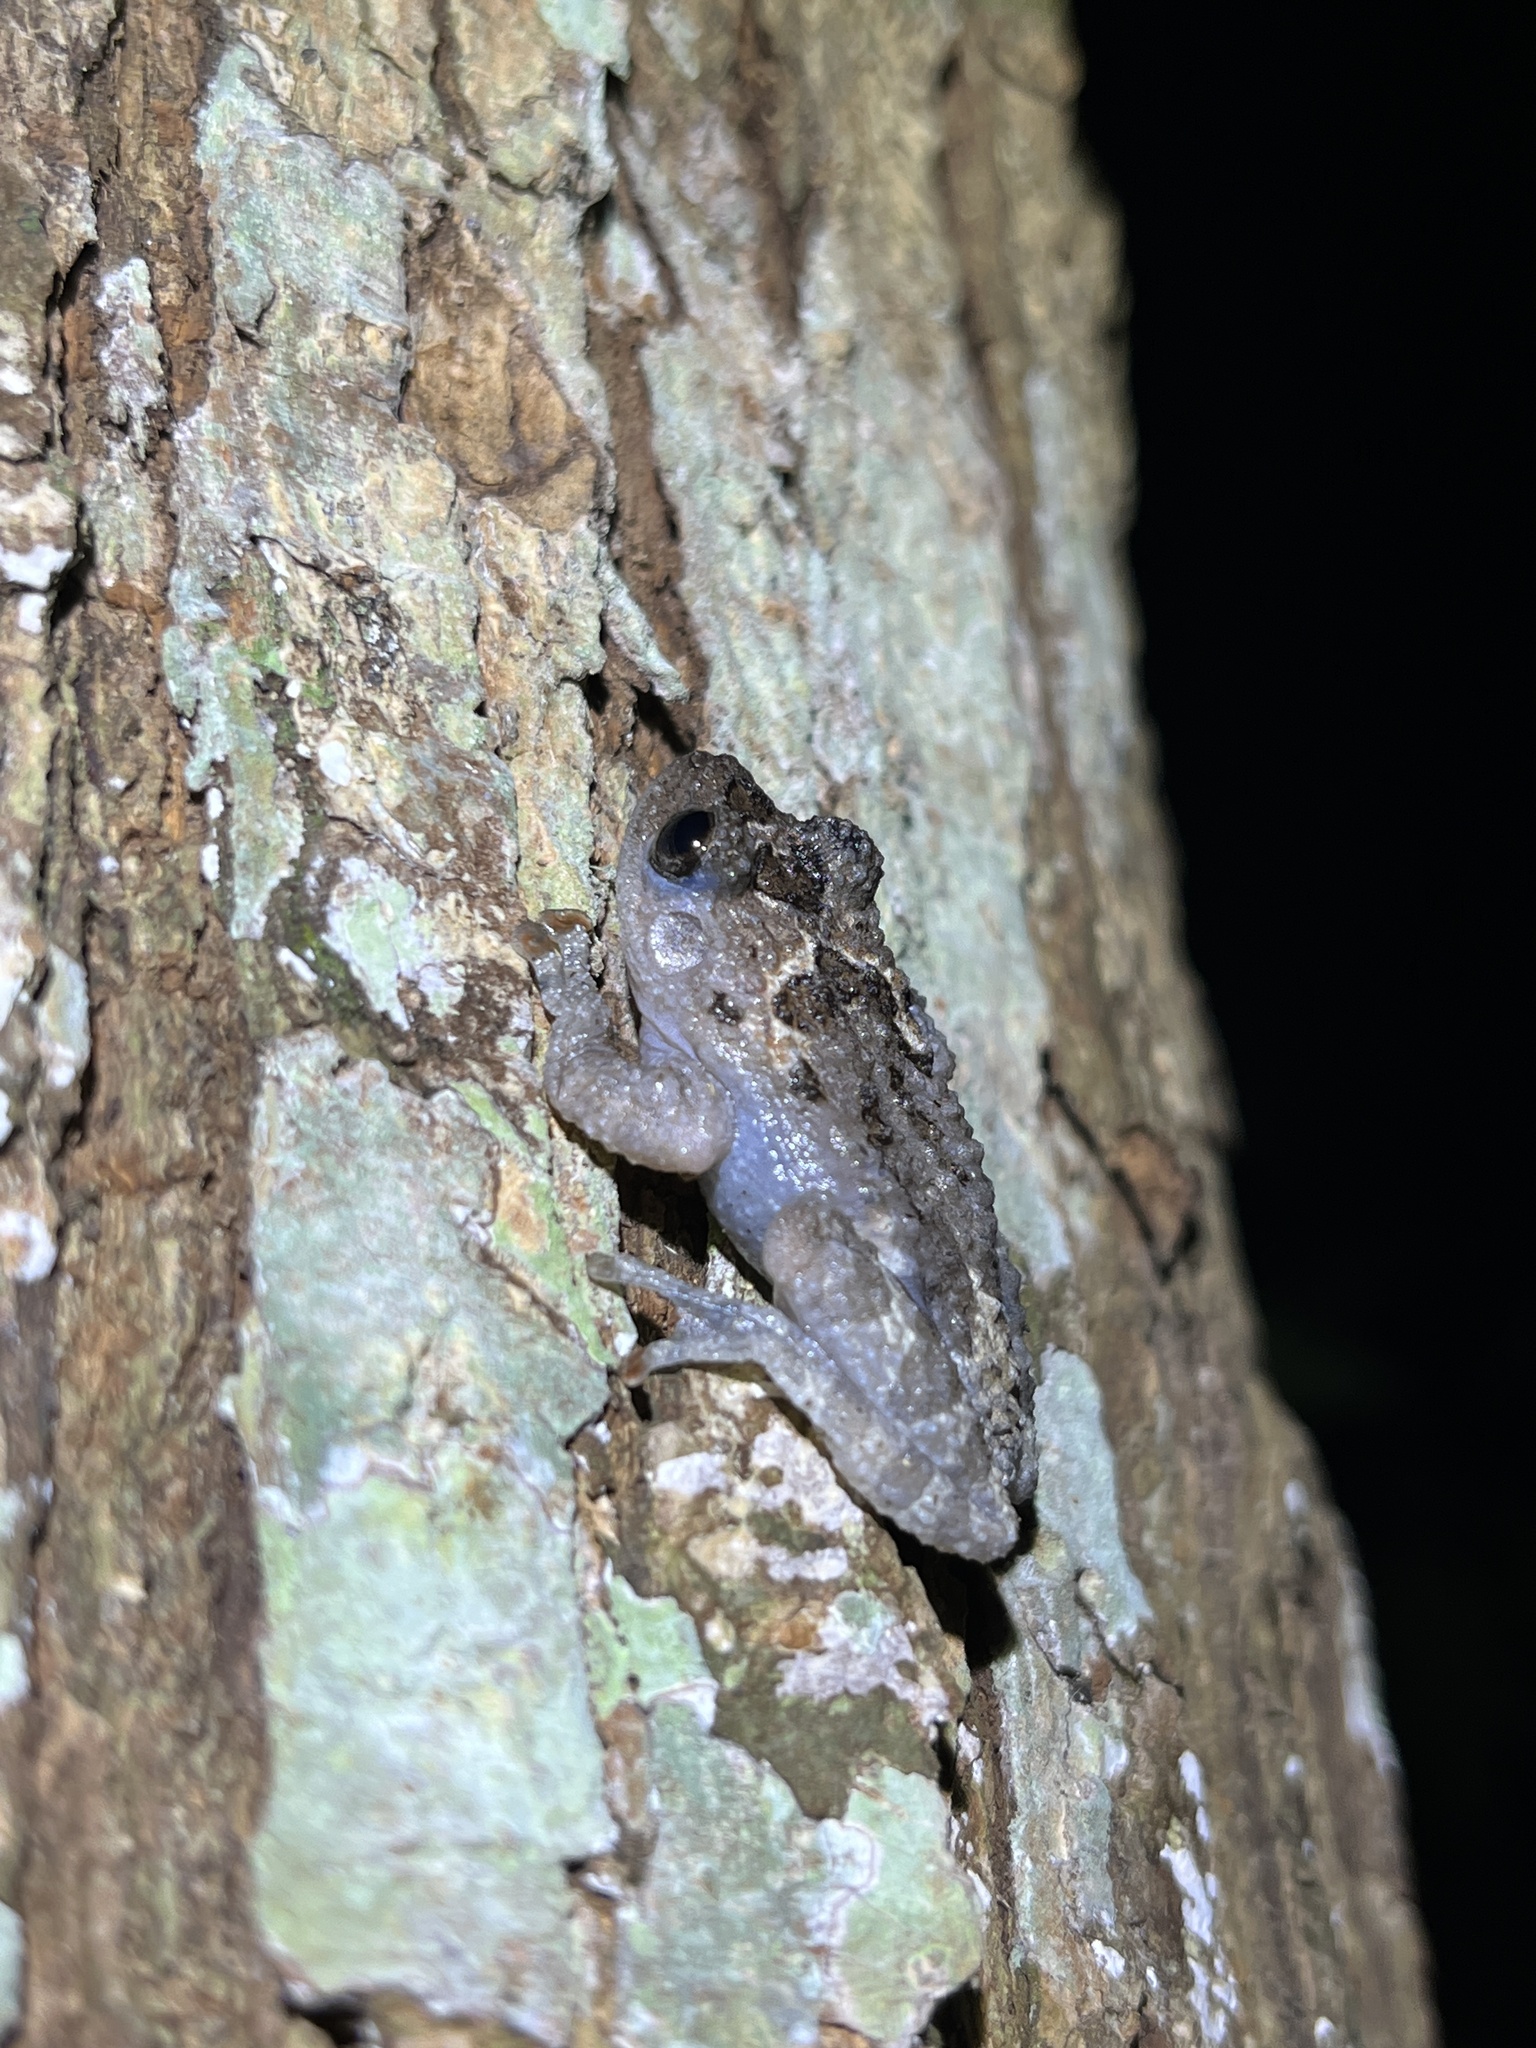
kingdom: Animalia
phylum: Chordata
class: Amphibia
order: Anura
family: Rhacophoridae
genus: Theloderma
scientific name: Theloderma stellatum
